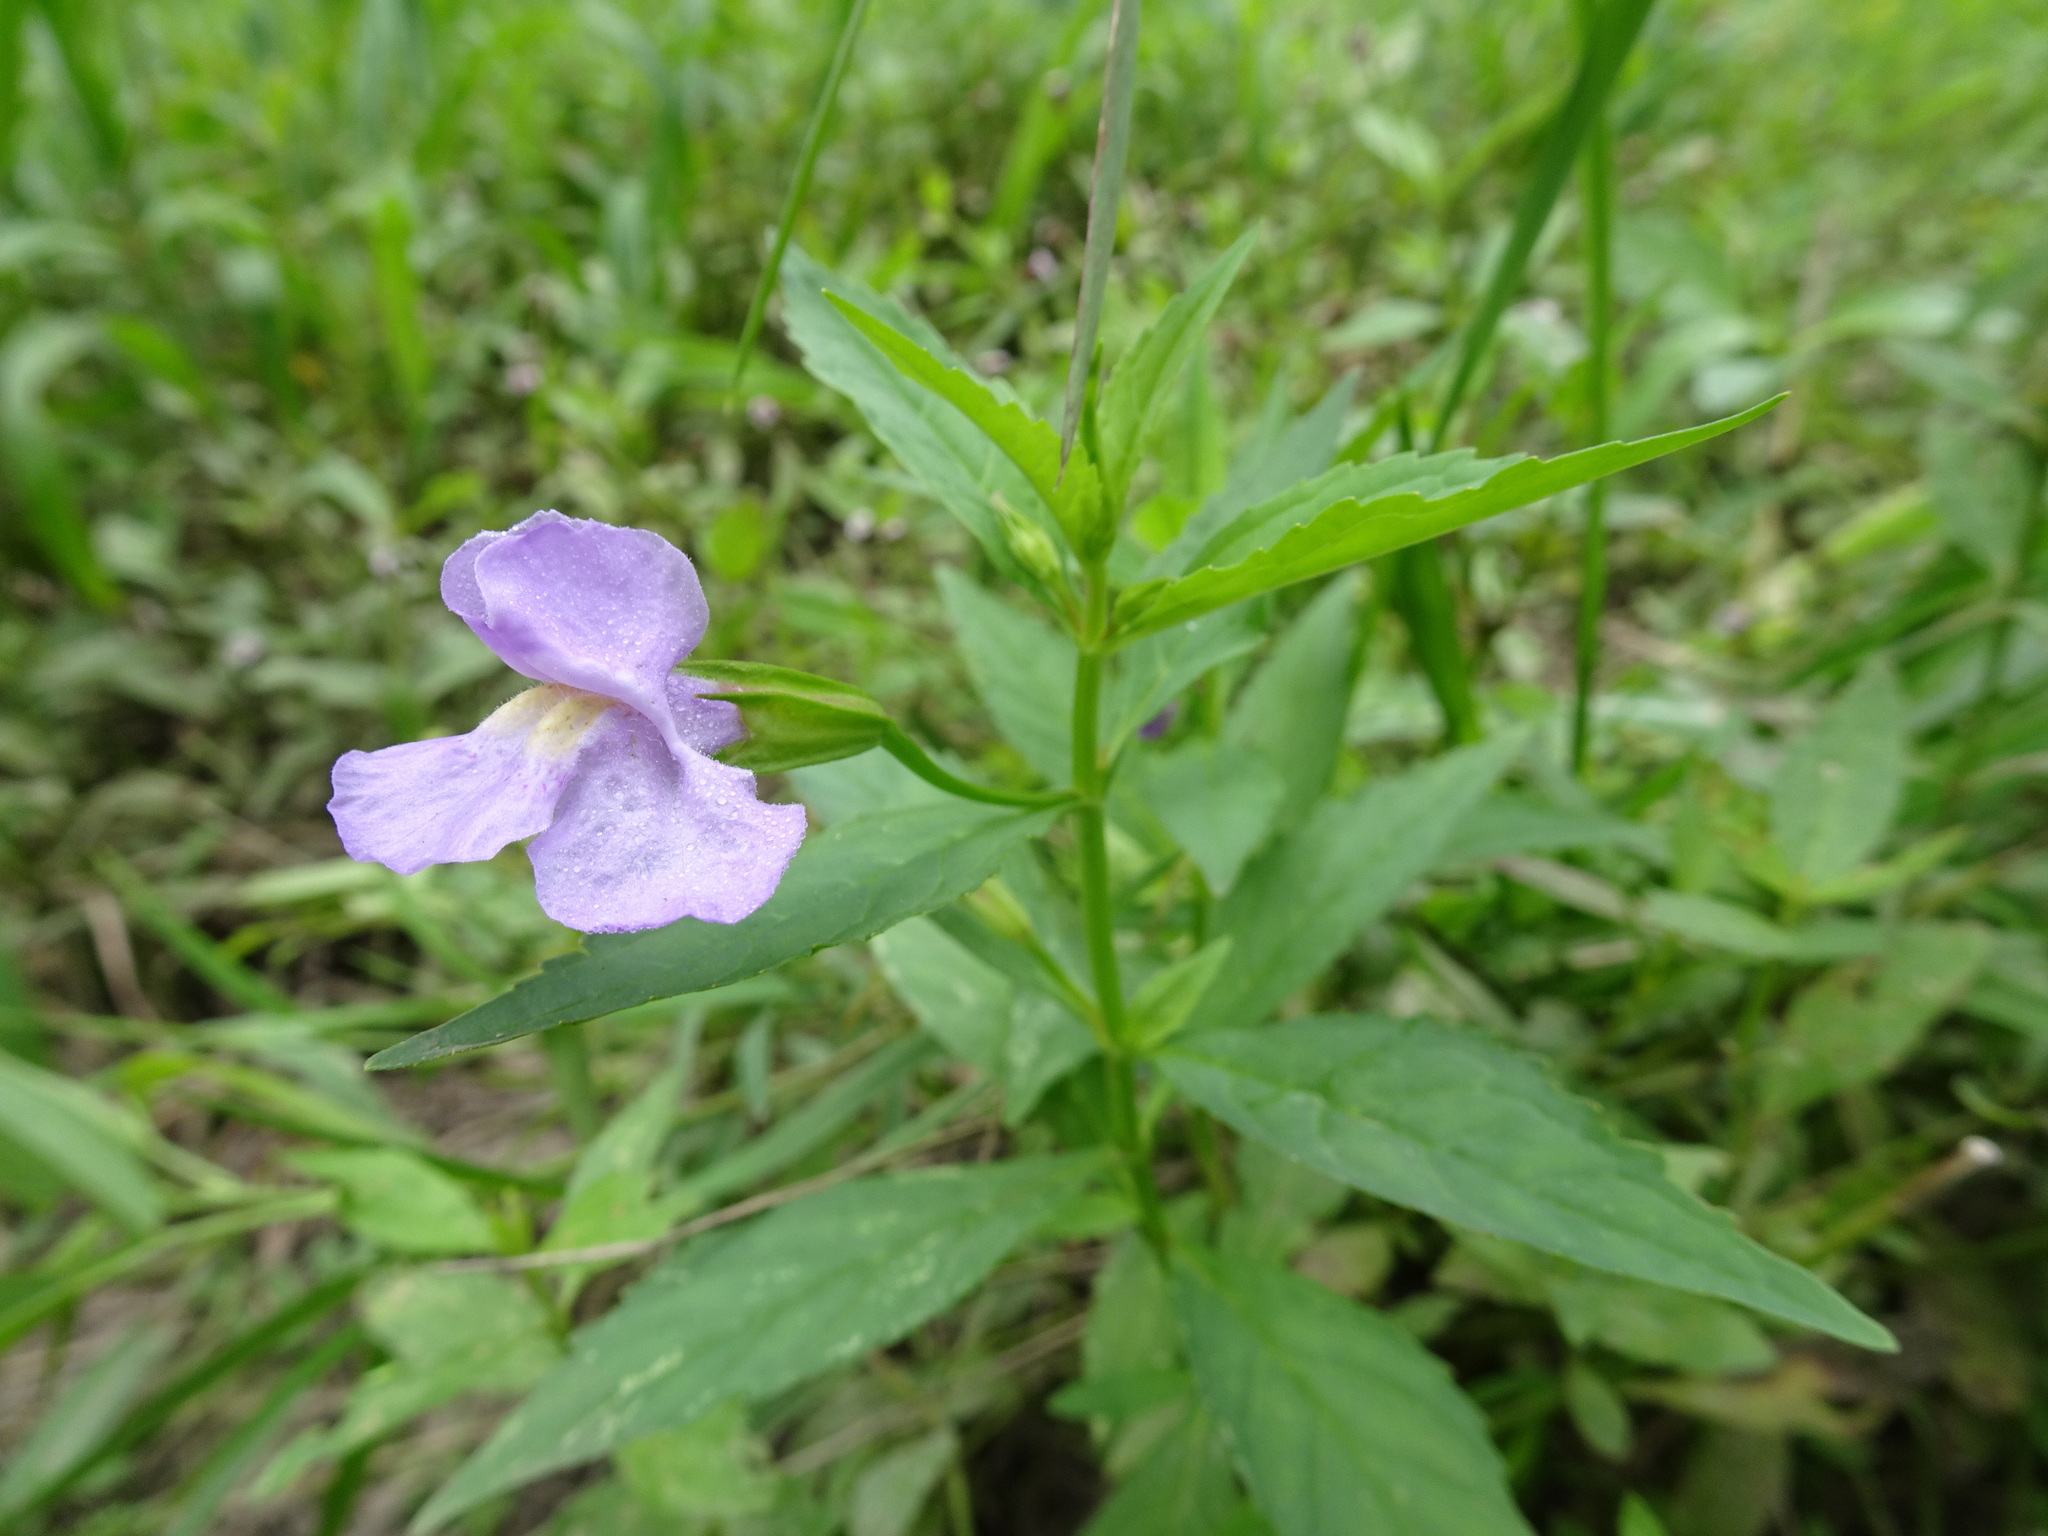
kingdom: Plantae
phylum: Tracheophyta
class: Magnoliopsida
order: Lamiales
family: Phrymaceae
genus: Mimulus
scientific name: Mimulus
